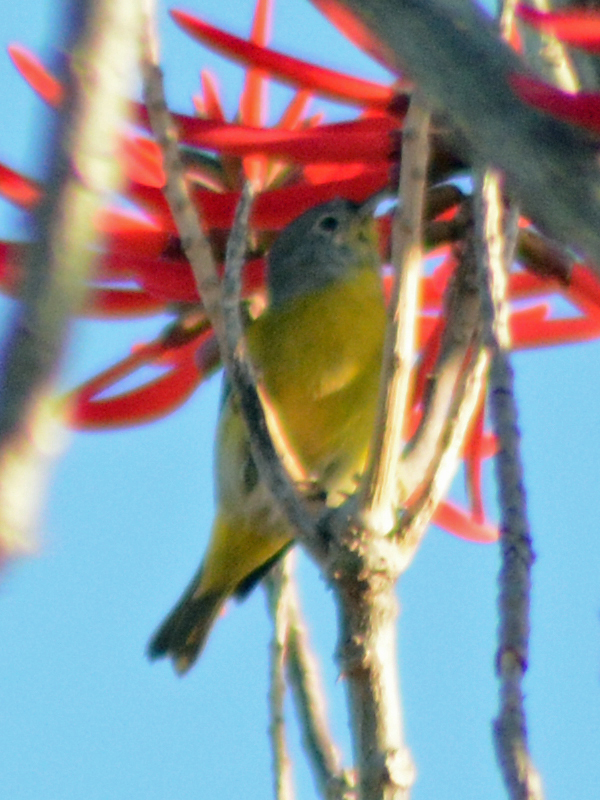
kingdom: Animalia
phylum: Chordata
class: Aves
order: Passeriformes
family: Parulidae
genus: Leiothlypis
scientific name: Leiothlypis ruficapilla
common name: Nashville warbler
